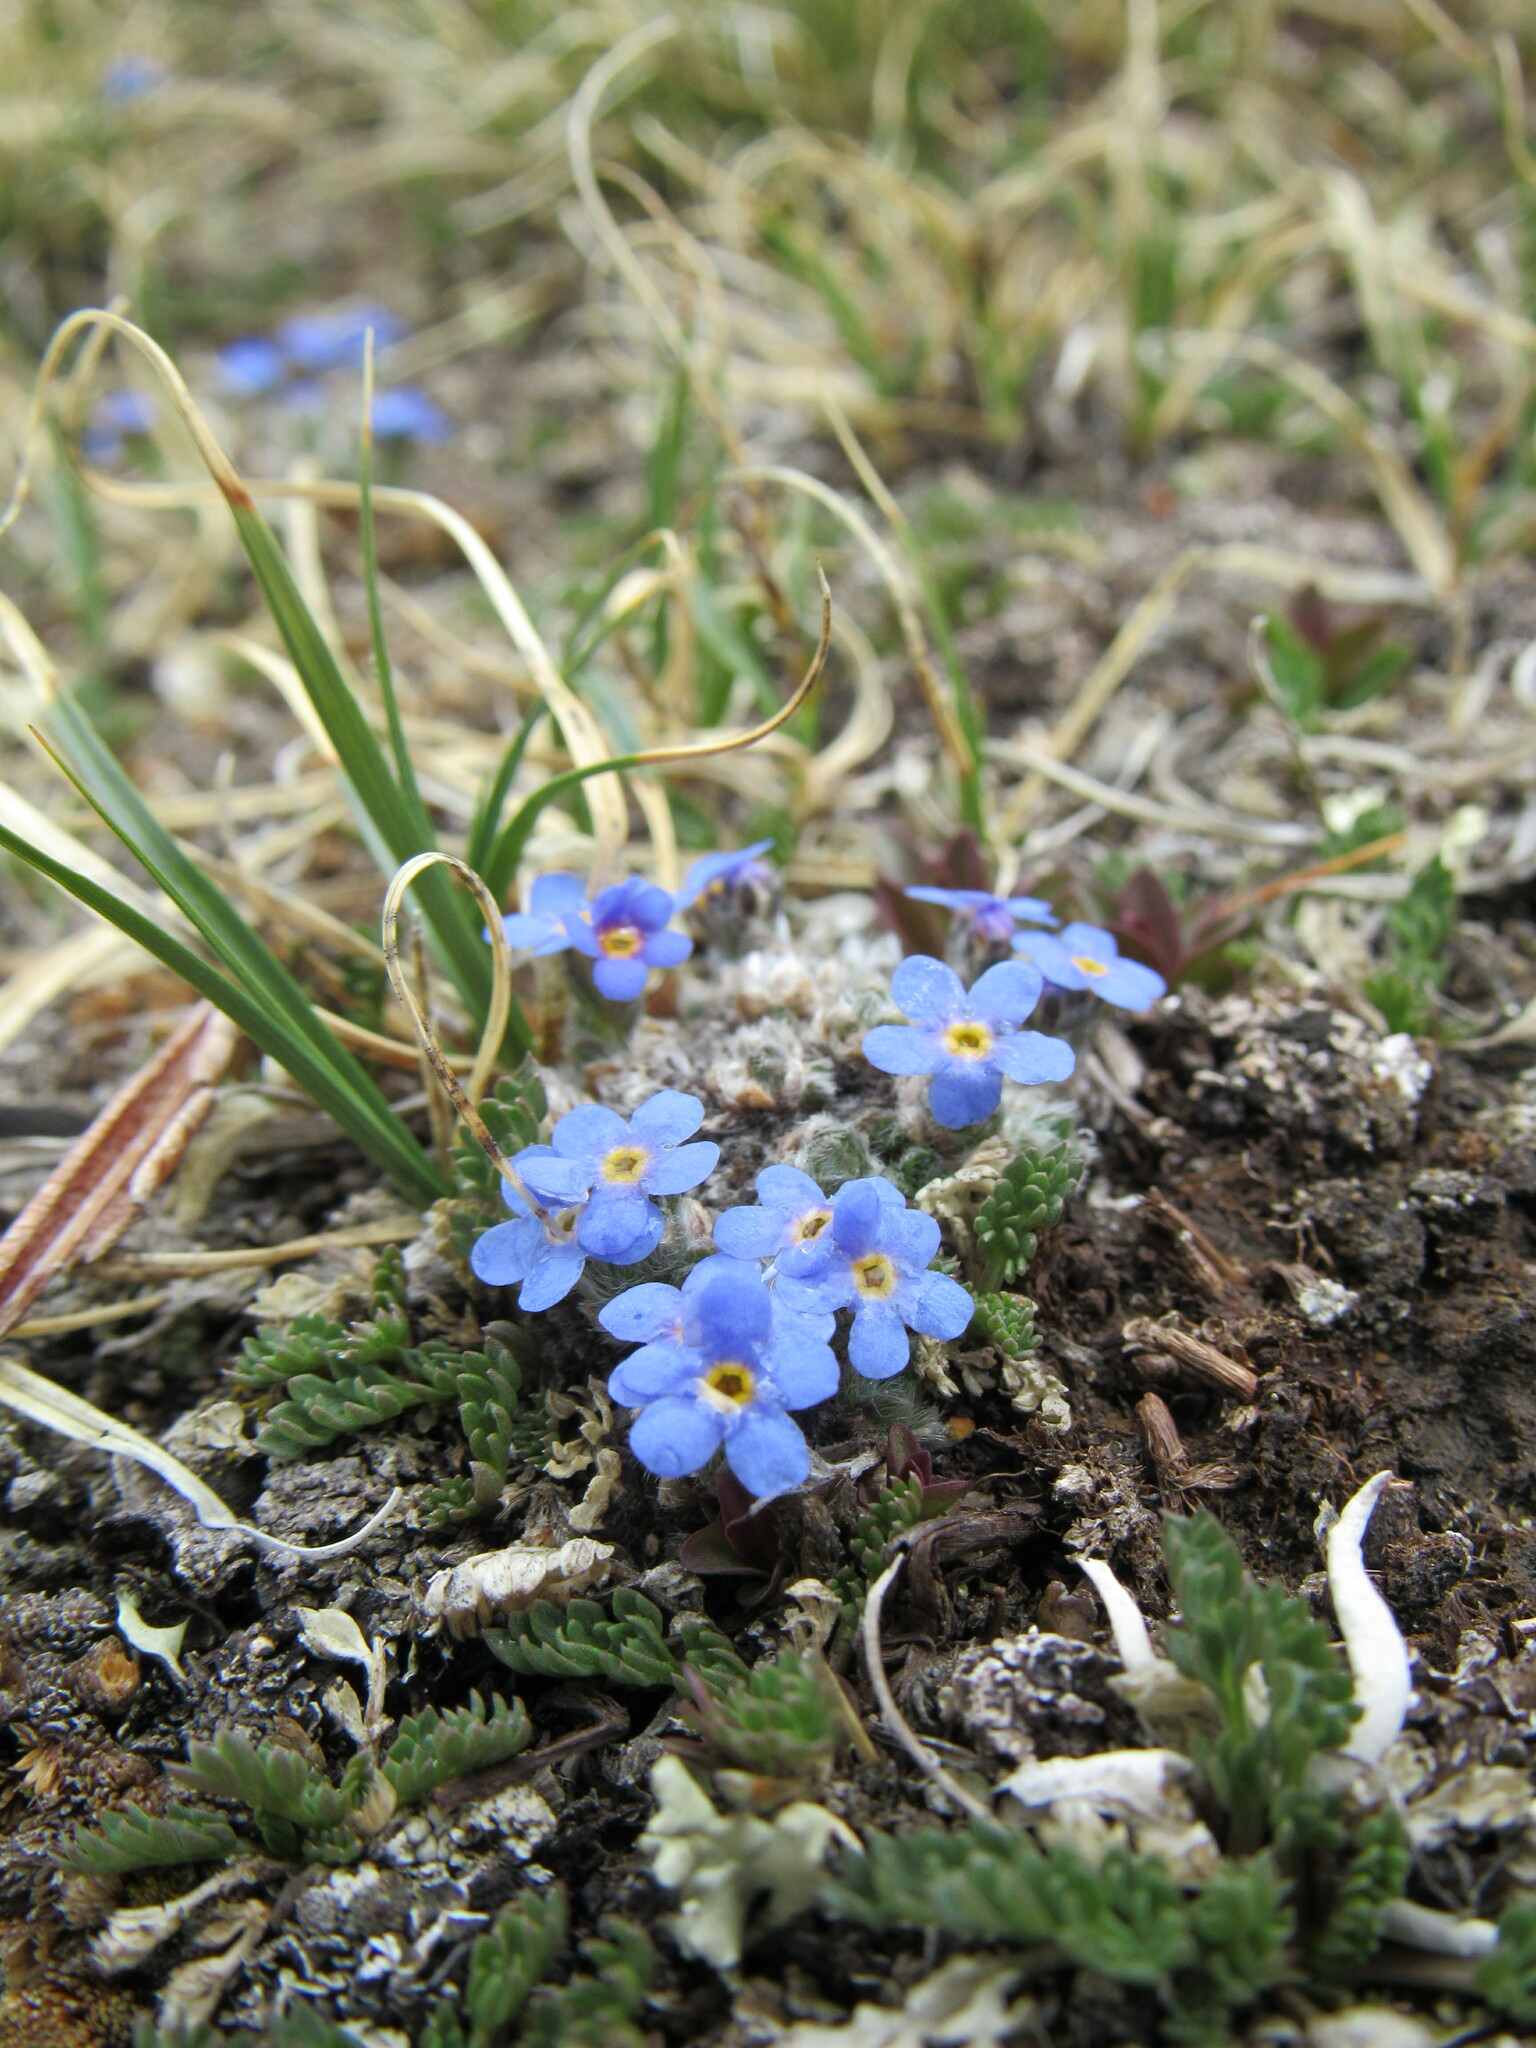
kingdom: Plantae
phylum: Tracheophyta
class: Magnoliopsida
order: Boraginales
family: Boraginaceae
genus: Eritrichium
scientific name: Eritrichium argenteum
